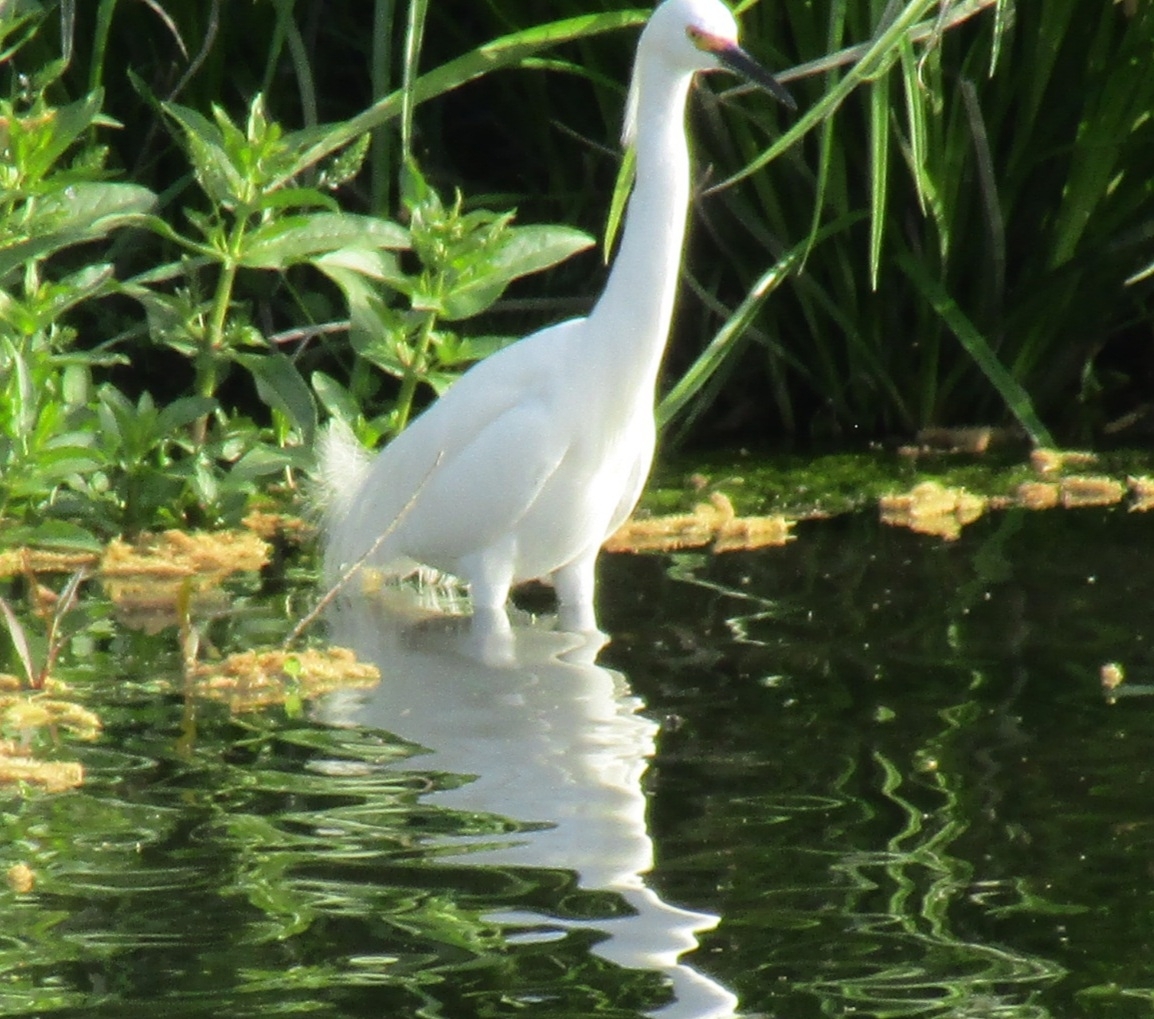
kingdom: Animalia
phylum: Chordata
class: Aves
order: Pelecaniformes
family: Ardeidae
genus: Egretta
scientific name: Egretta thula
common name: Snowy egret
